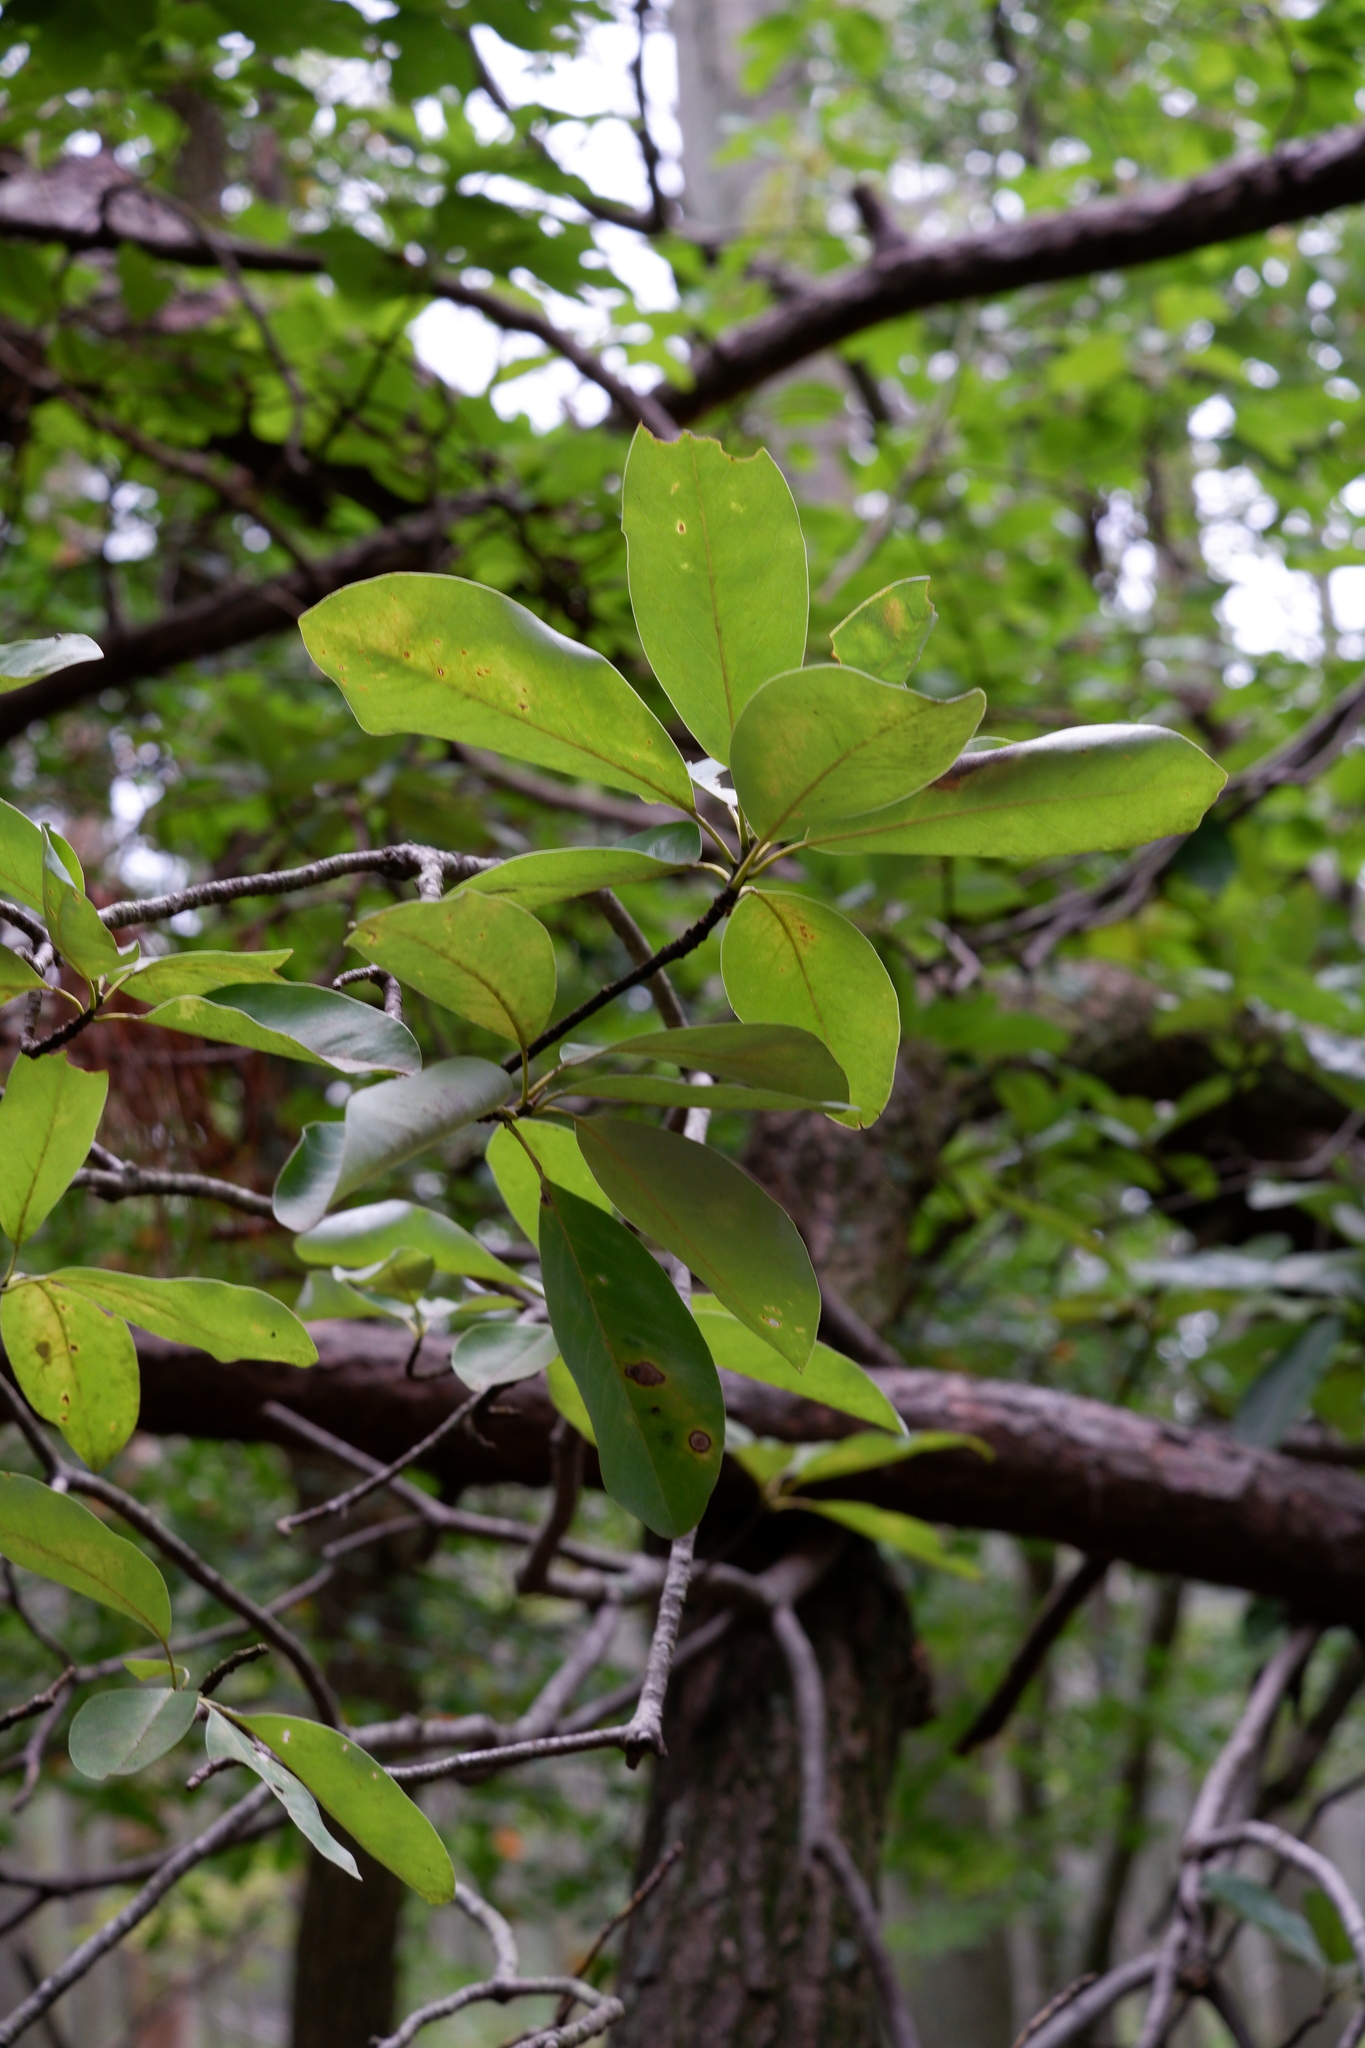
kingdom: Plantae
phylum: Tracheophyta
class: Magnoliopsida
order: Magnoliales
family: Magnoliaceae
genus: Magnolia
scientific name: Magnolia virginiana
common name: Swamp bay
